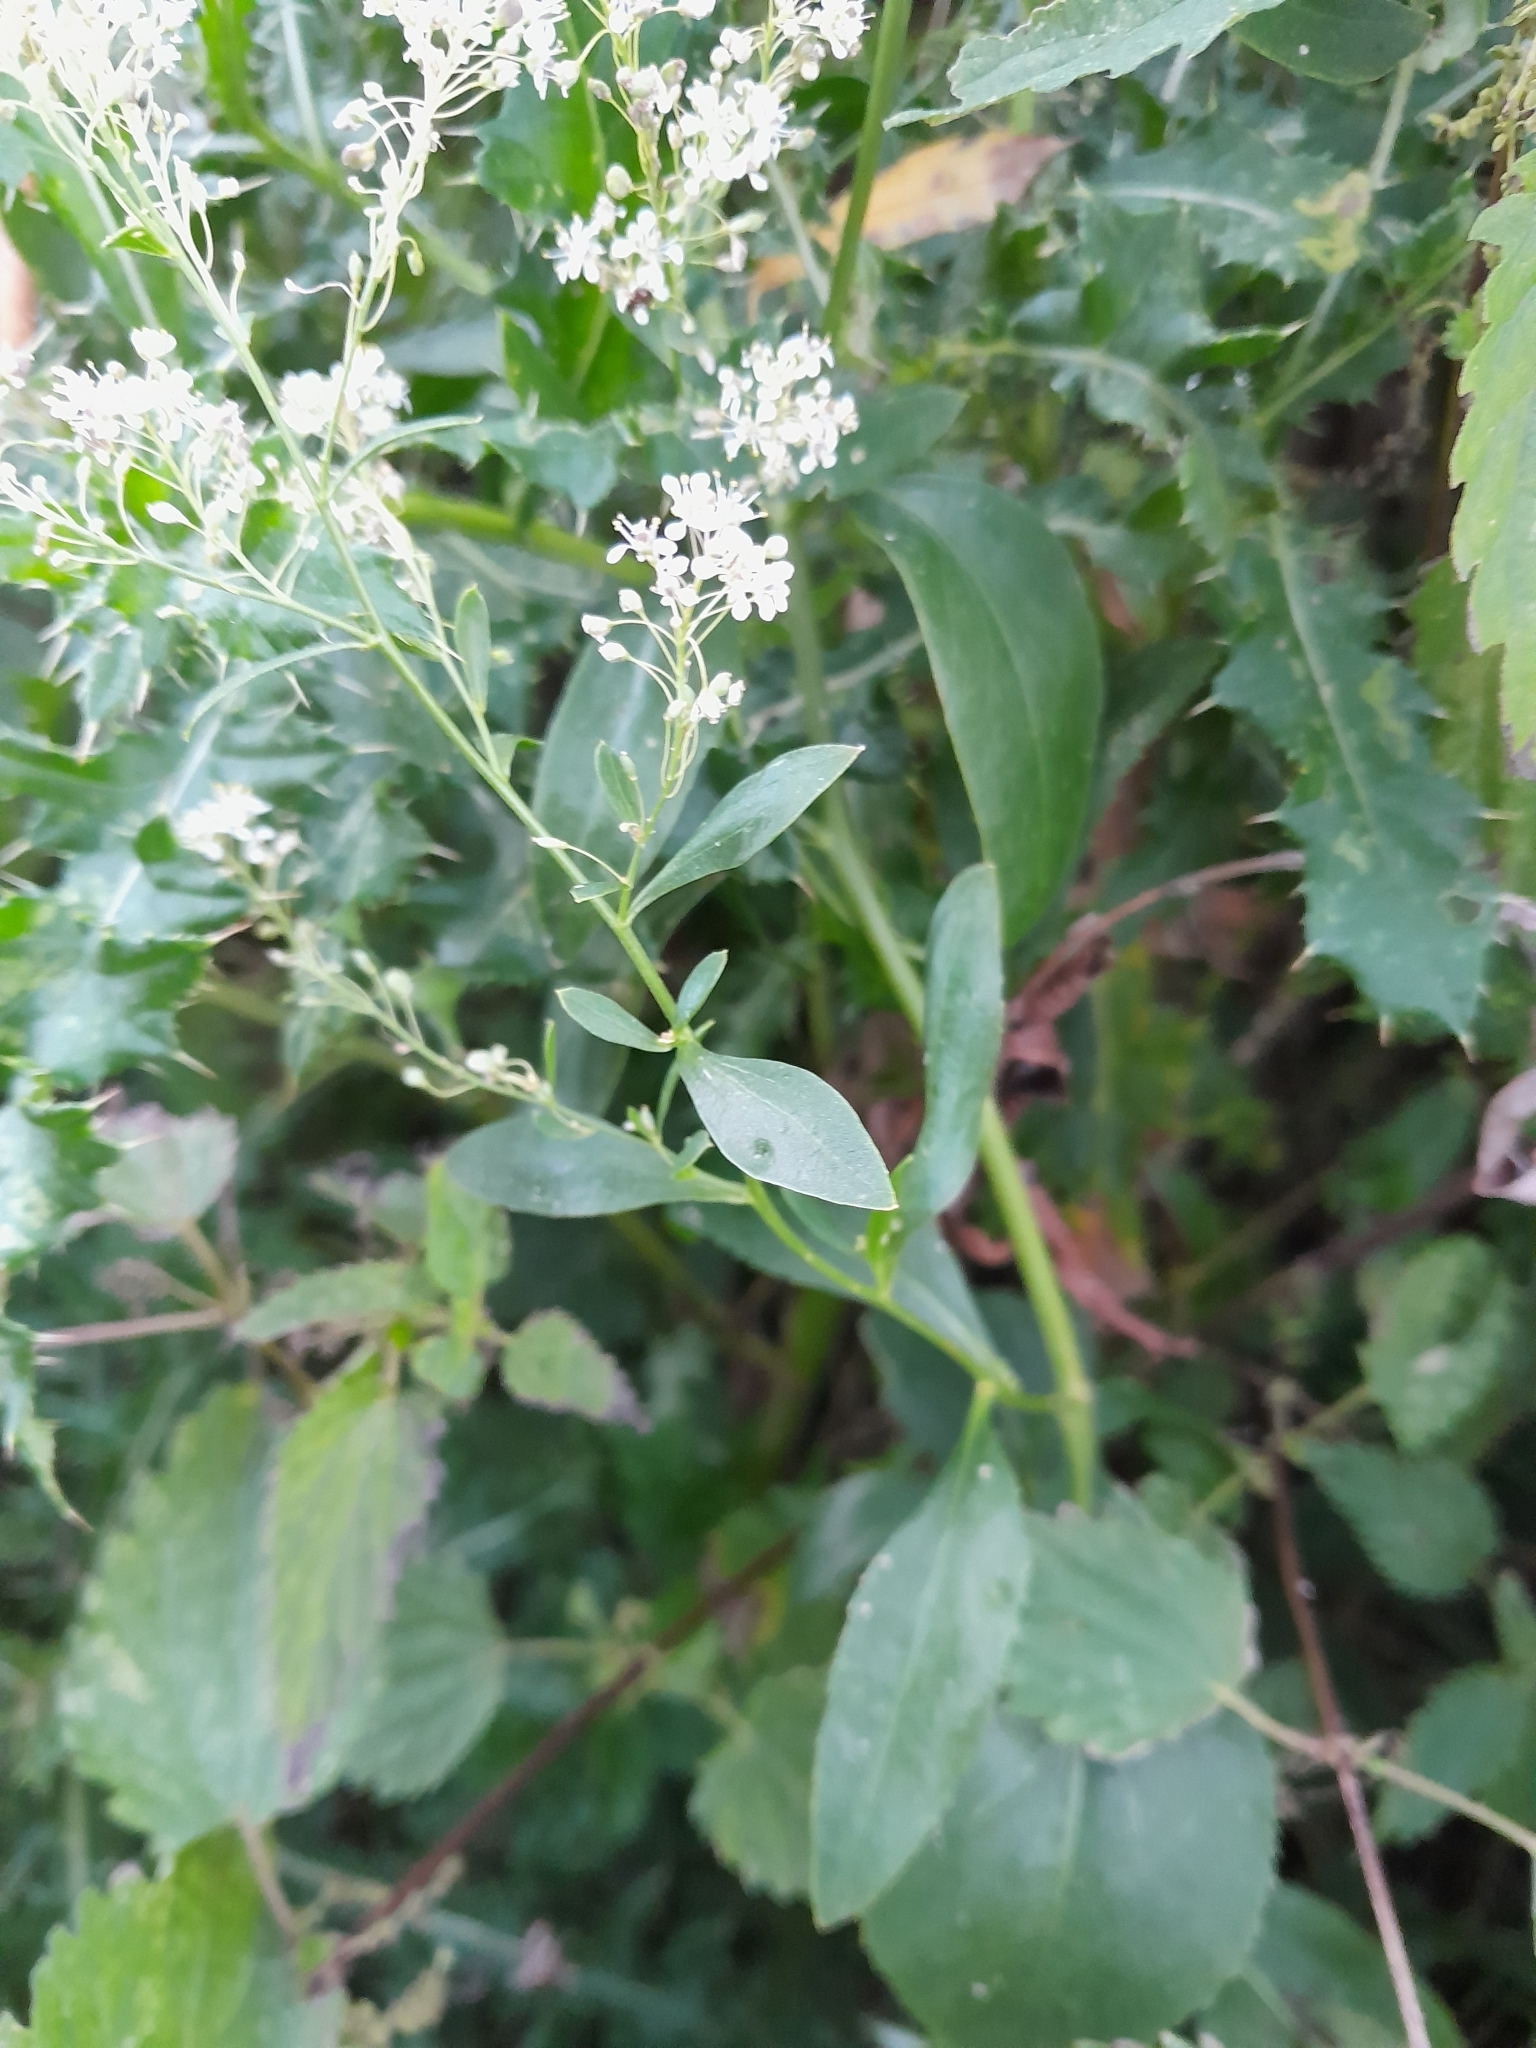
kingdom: Plantae
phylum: Tracheophyta
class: Magnoliopsida
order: Brassicales
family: Brassicaceae
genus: Lepidium
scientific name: Lepidium latifolium
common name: Dittander
